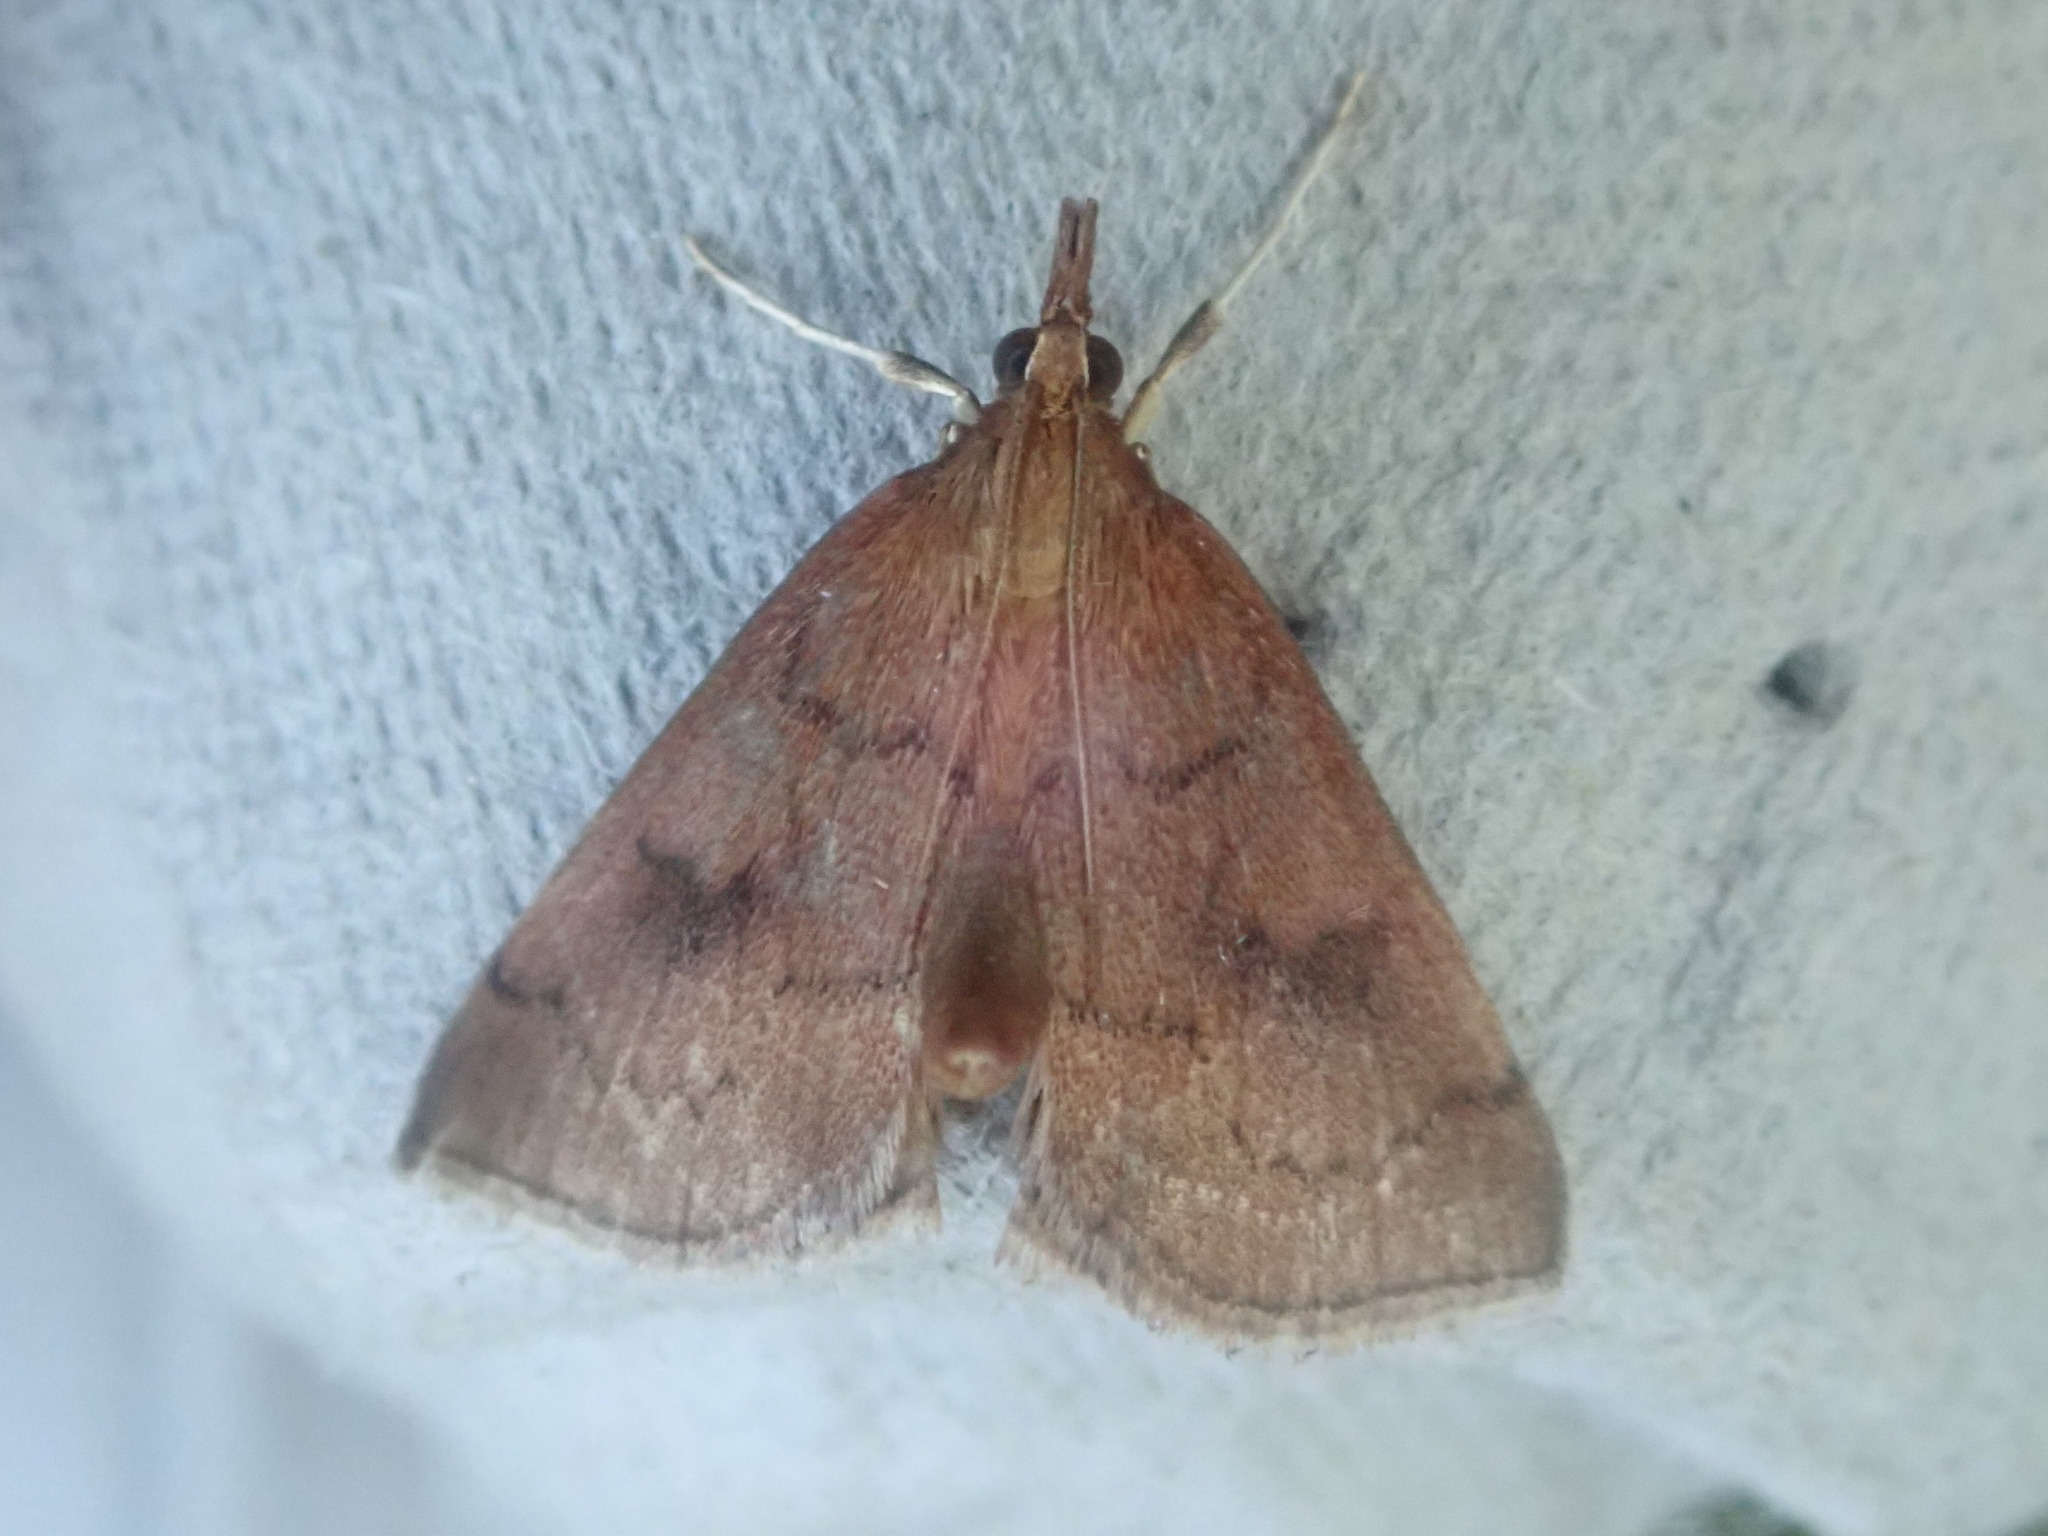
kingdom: Animalia
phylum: Arthropoda
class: Insecta
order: Lepidoptera
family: Crambidae
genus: Fumibotys
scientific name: Fumibotys fumalis
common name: Mint root borer moth
